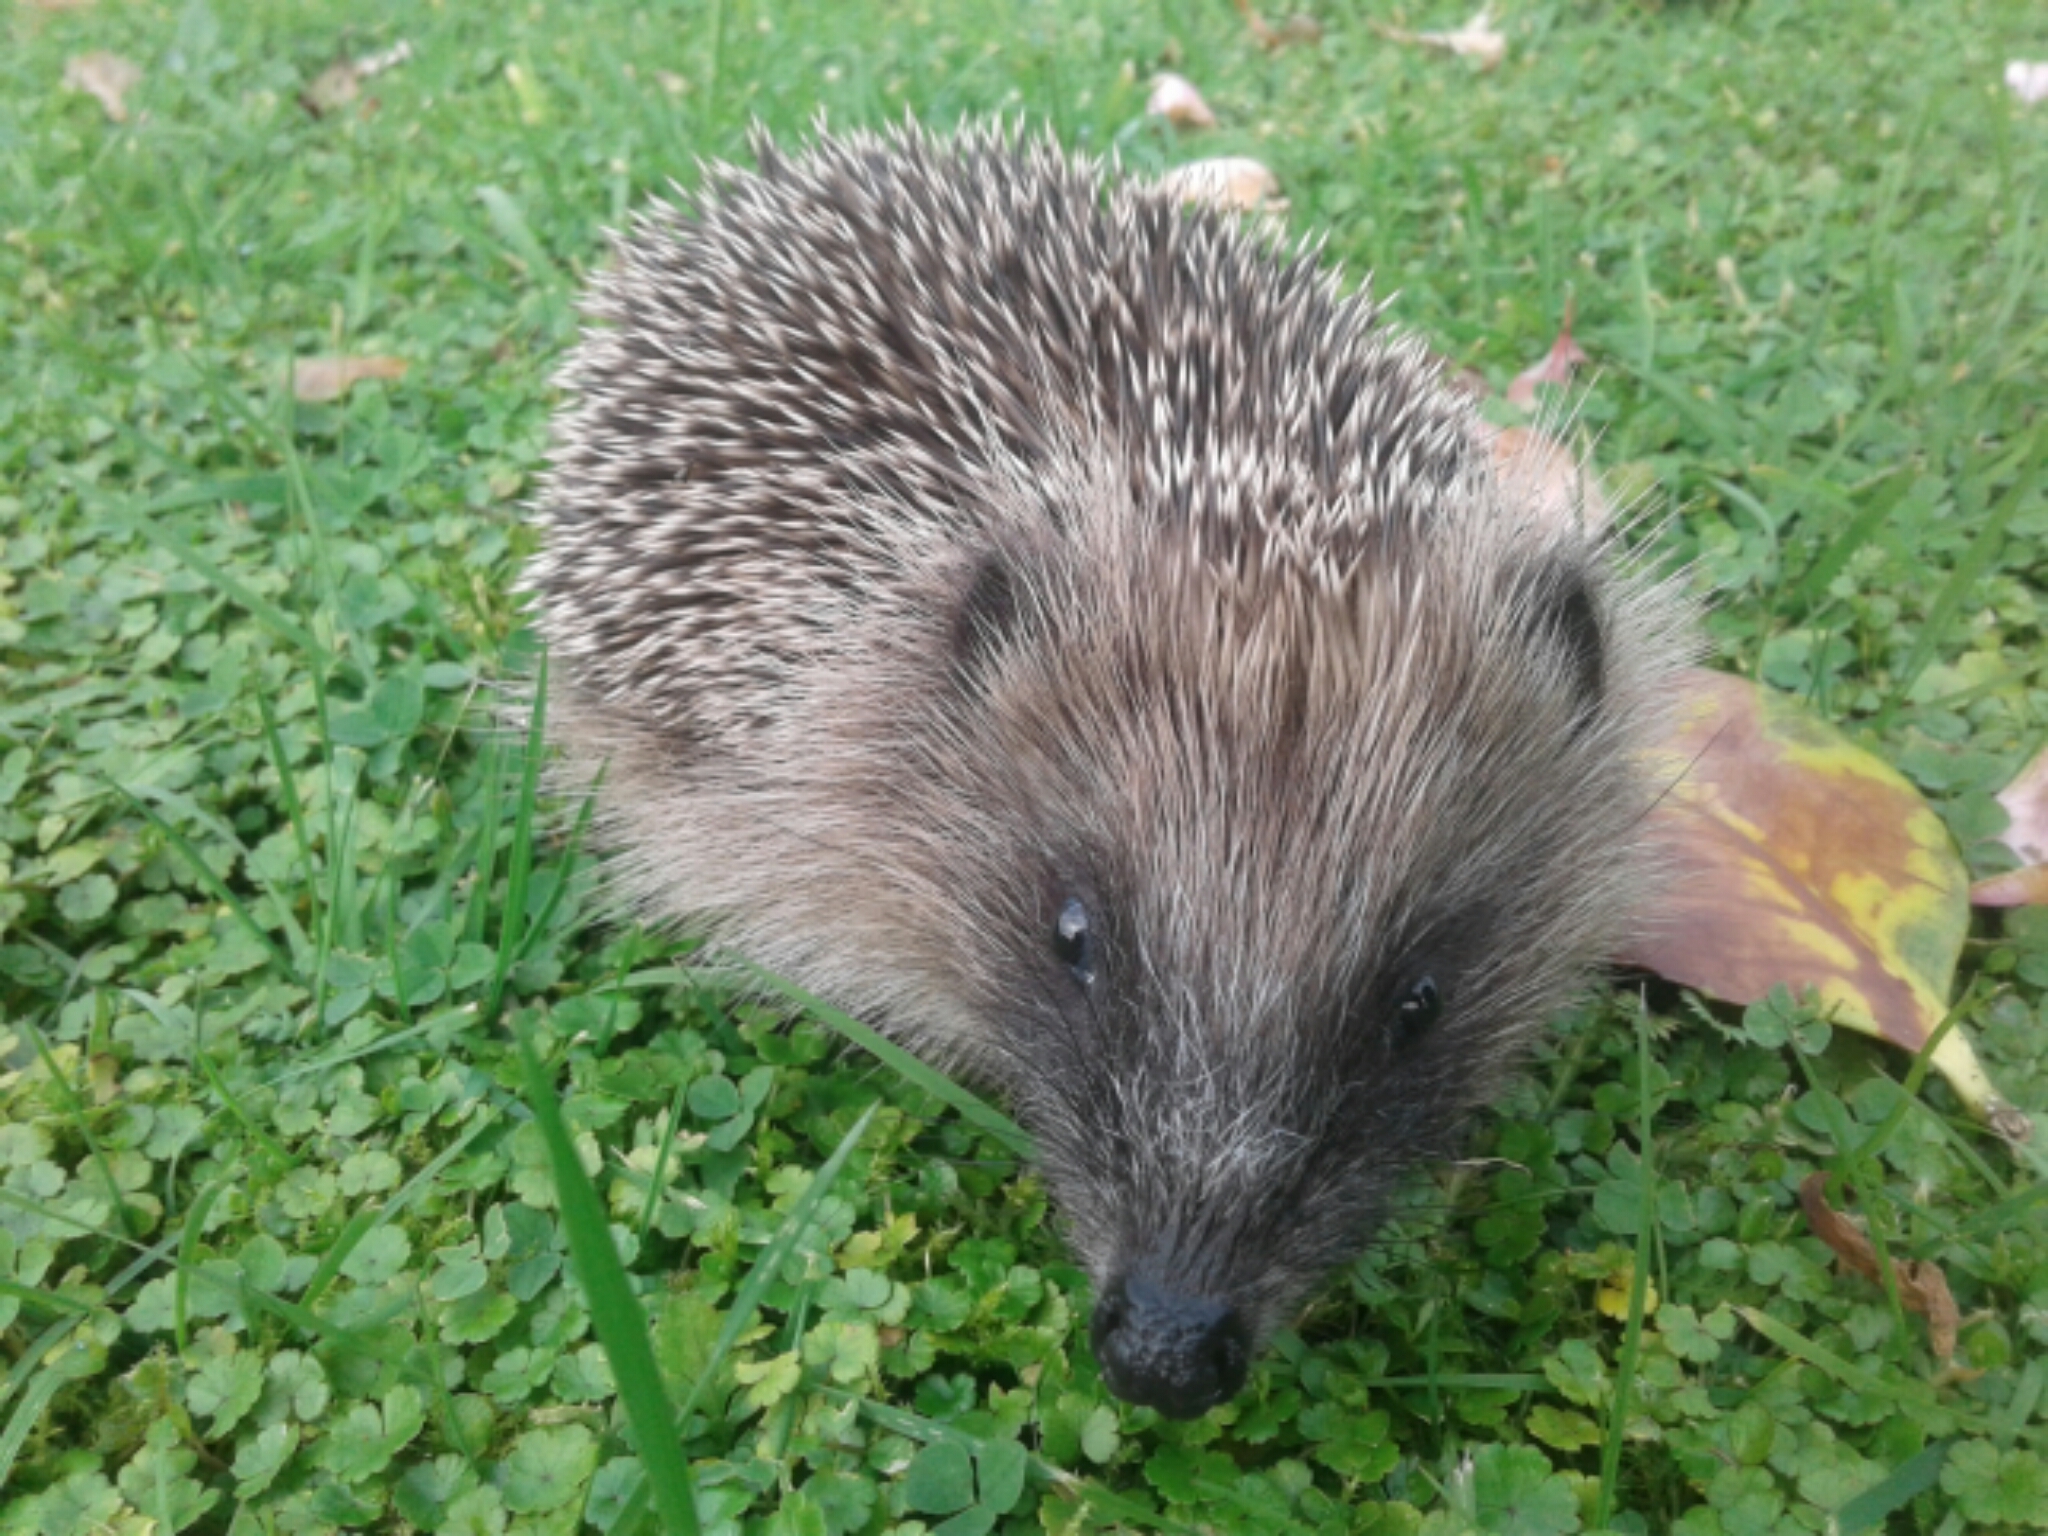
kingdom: Animalia
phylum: Chordata
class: Mammalia
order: Erinaceomorpha
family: Erinaceidae
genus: Erinaceus
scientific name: Erinaceus europaeus
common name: West european hedgehog
